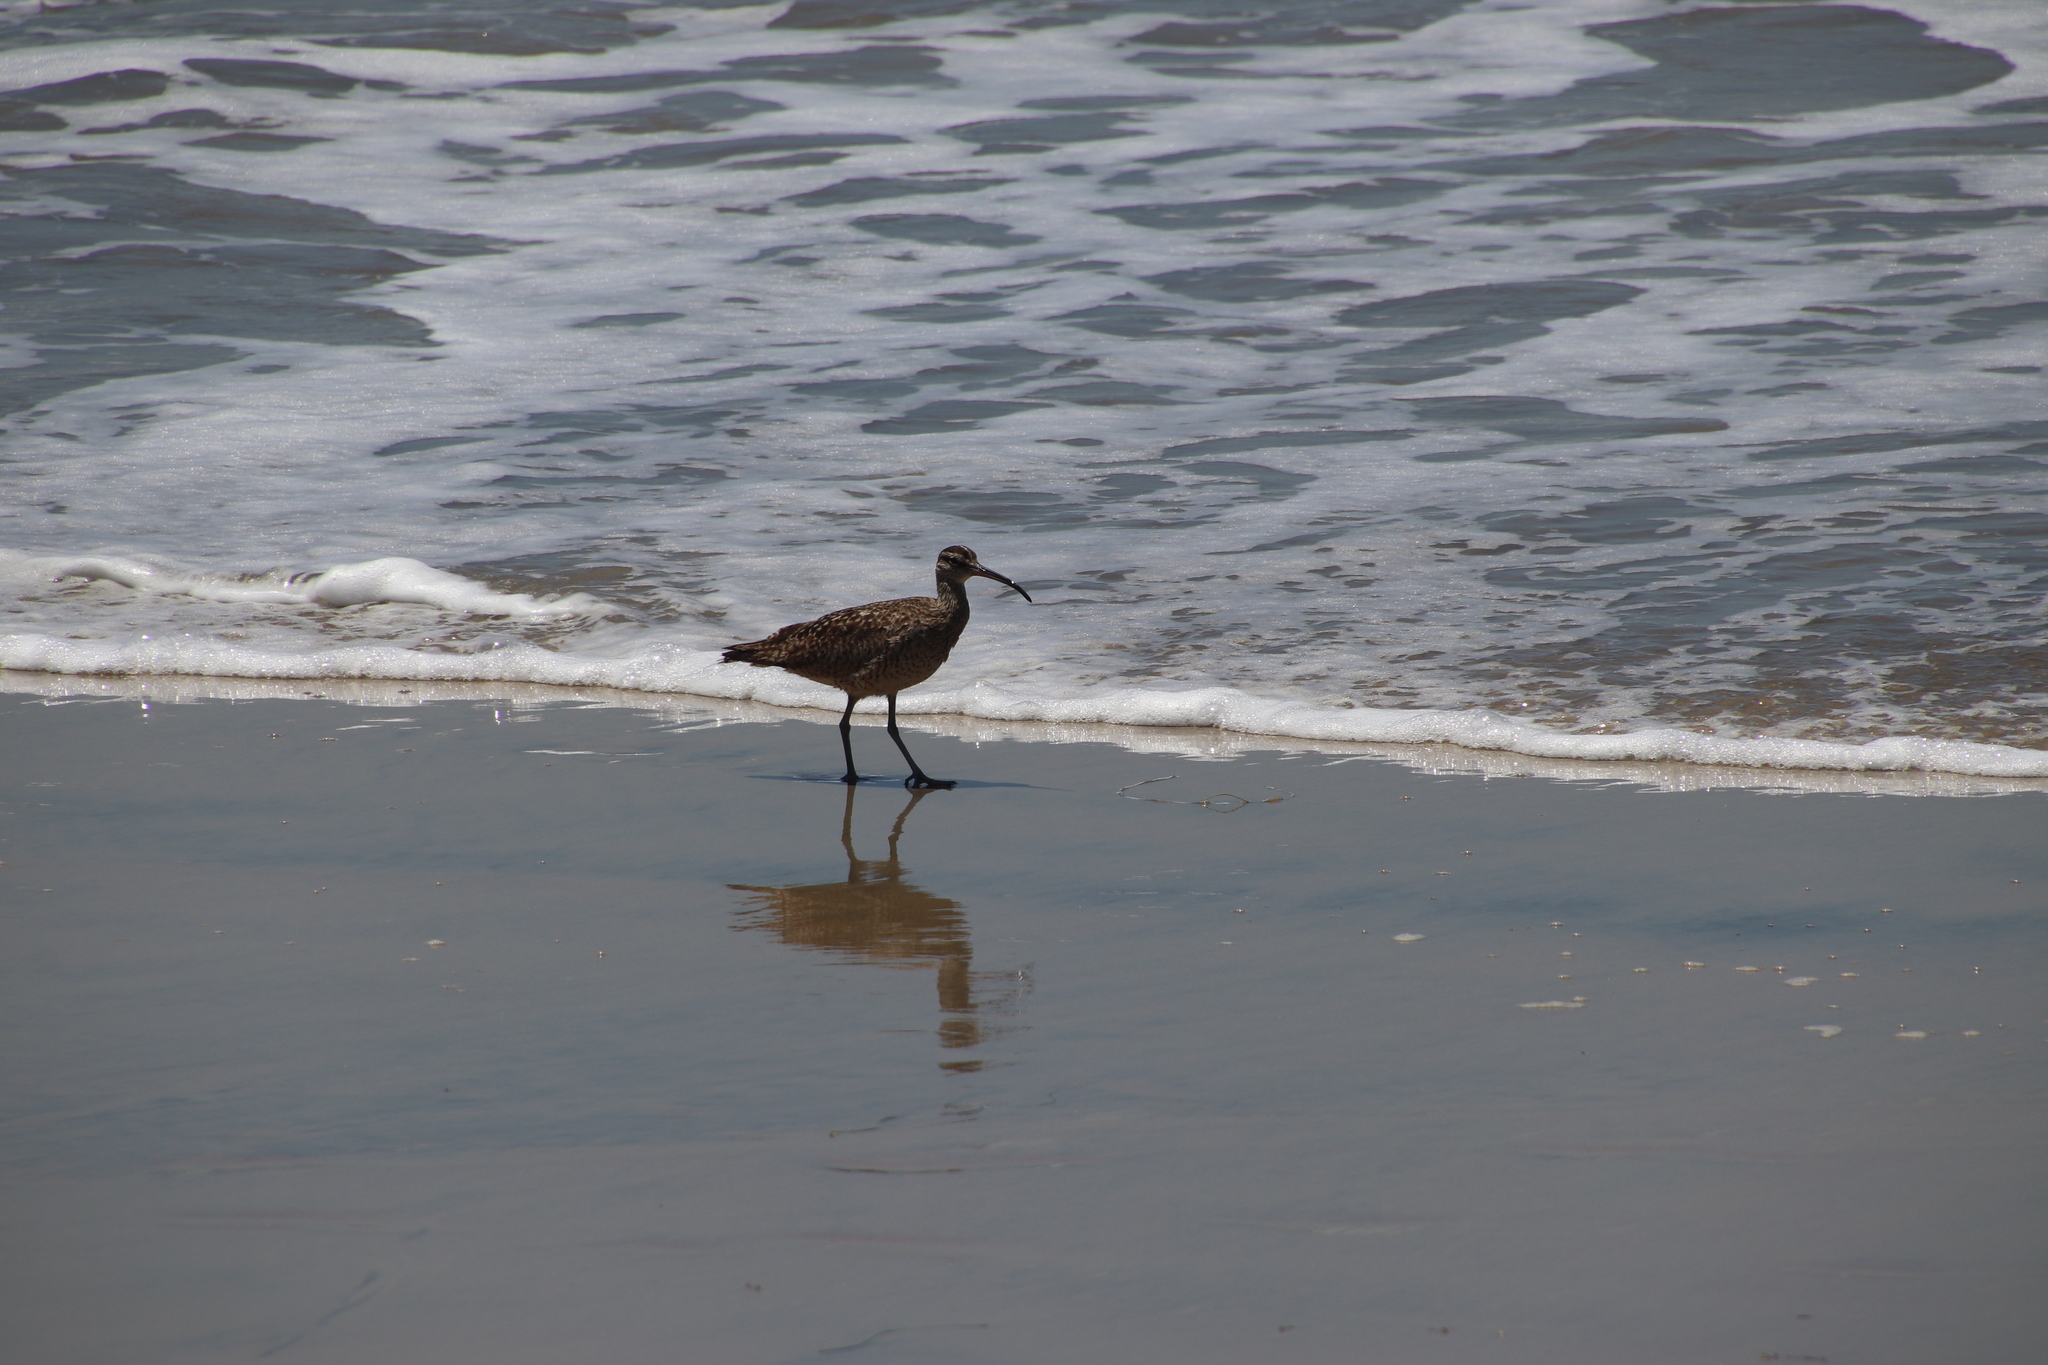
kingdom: Animalia
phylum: Chordata
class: Aves
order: Charadriiformes
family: Scolopacidae
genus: Numenius
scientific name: Numenius phaeopus
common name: Whimbrel
